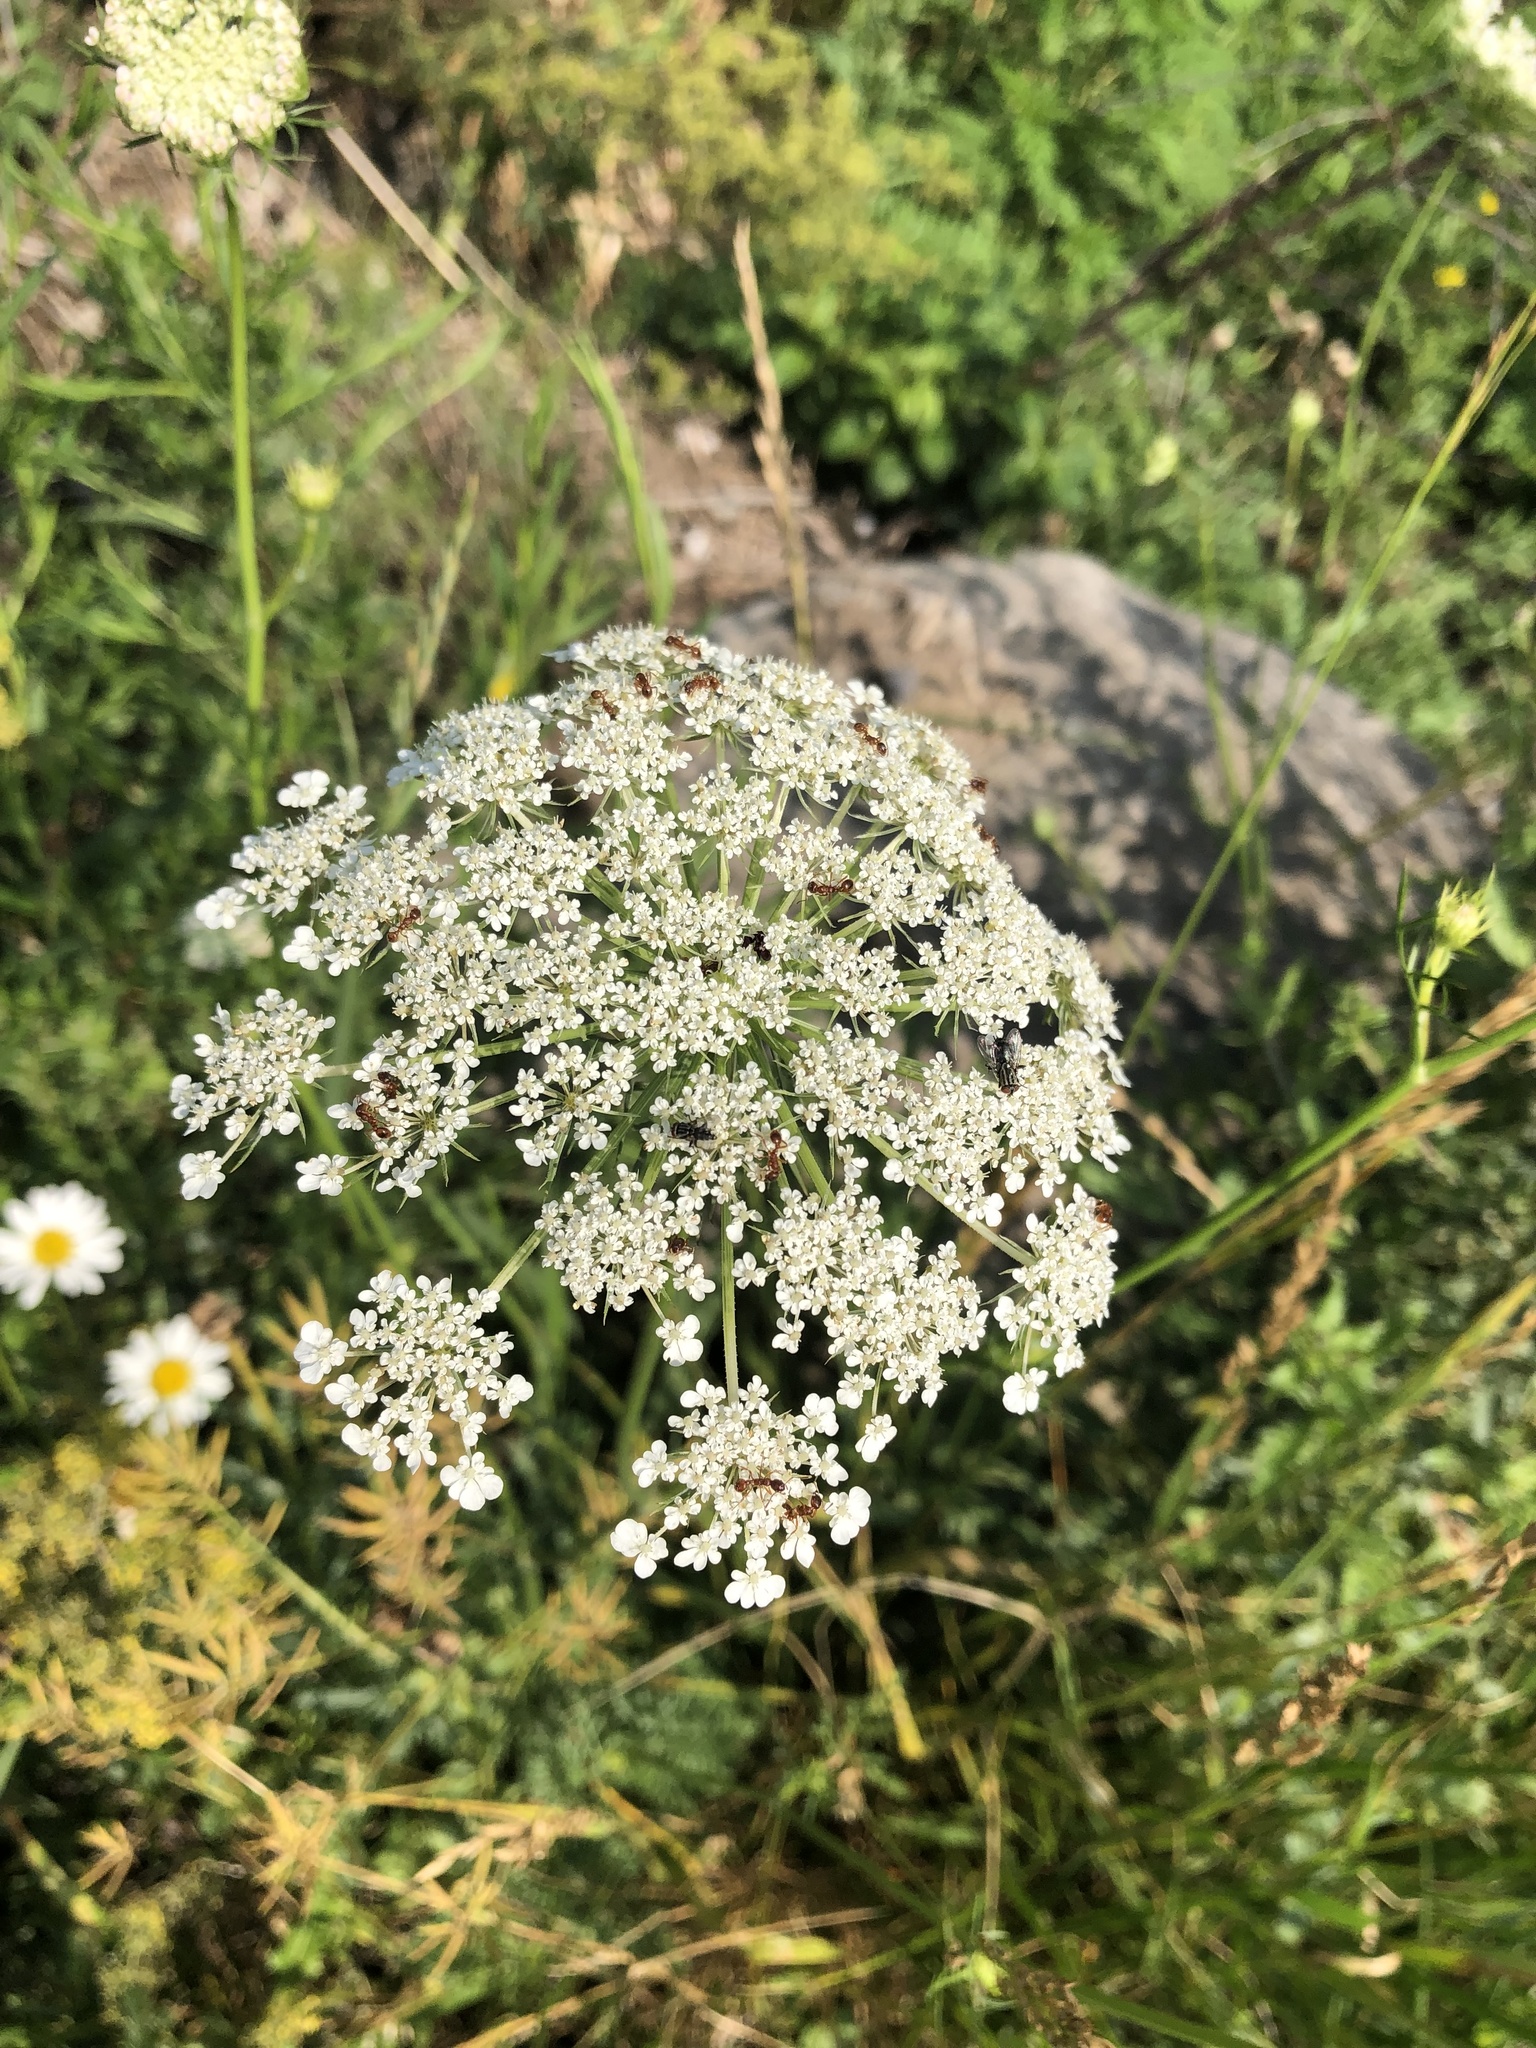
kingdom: Plantae
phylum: Tracheophyta
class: Magnoliopsida
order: Apiales
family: Apiaceae
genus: Daucus
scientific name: Daucus carota
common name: Wild carrot
